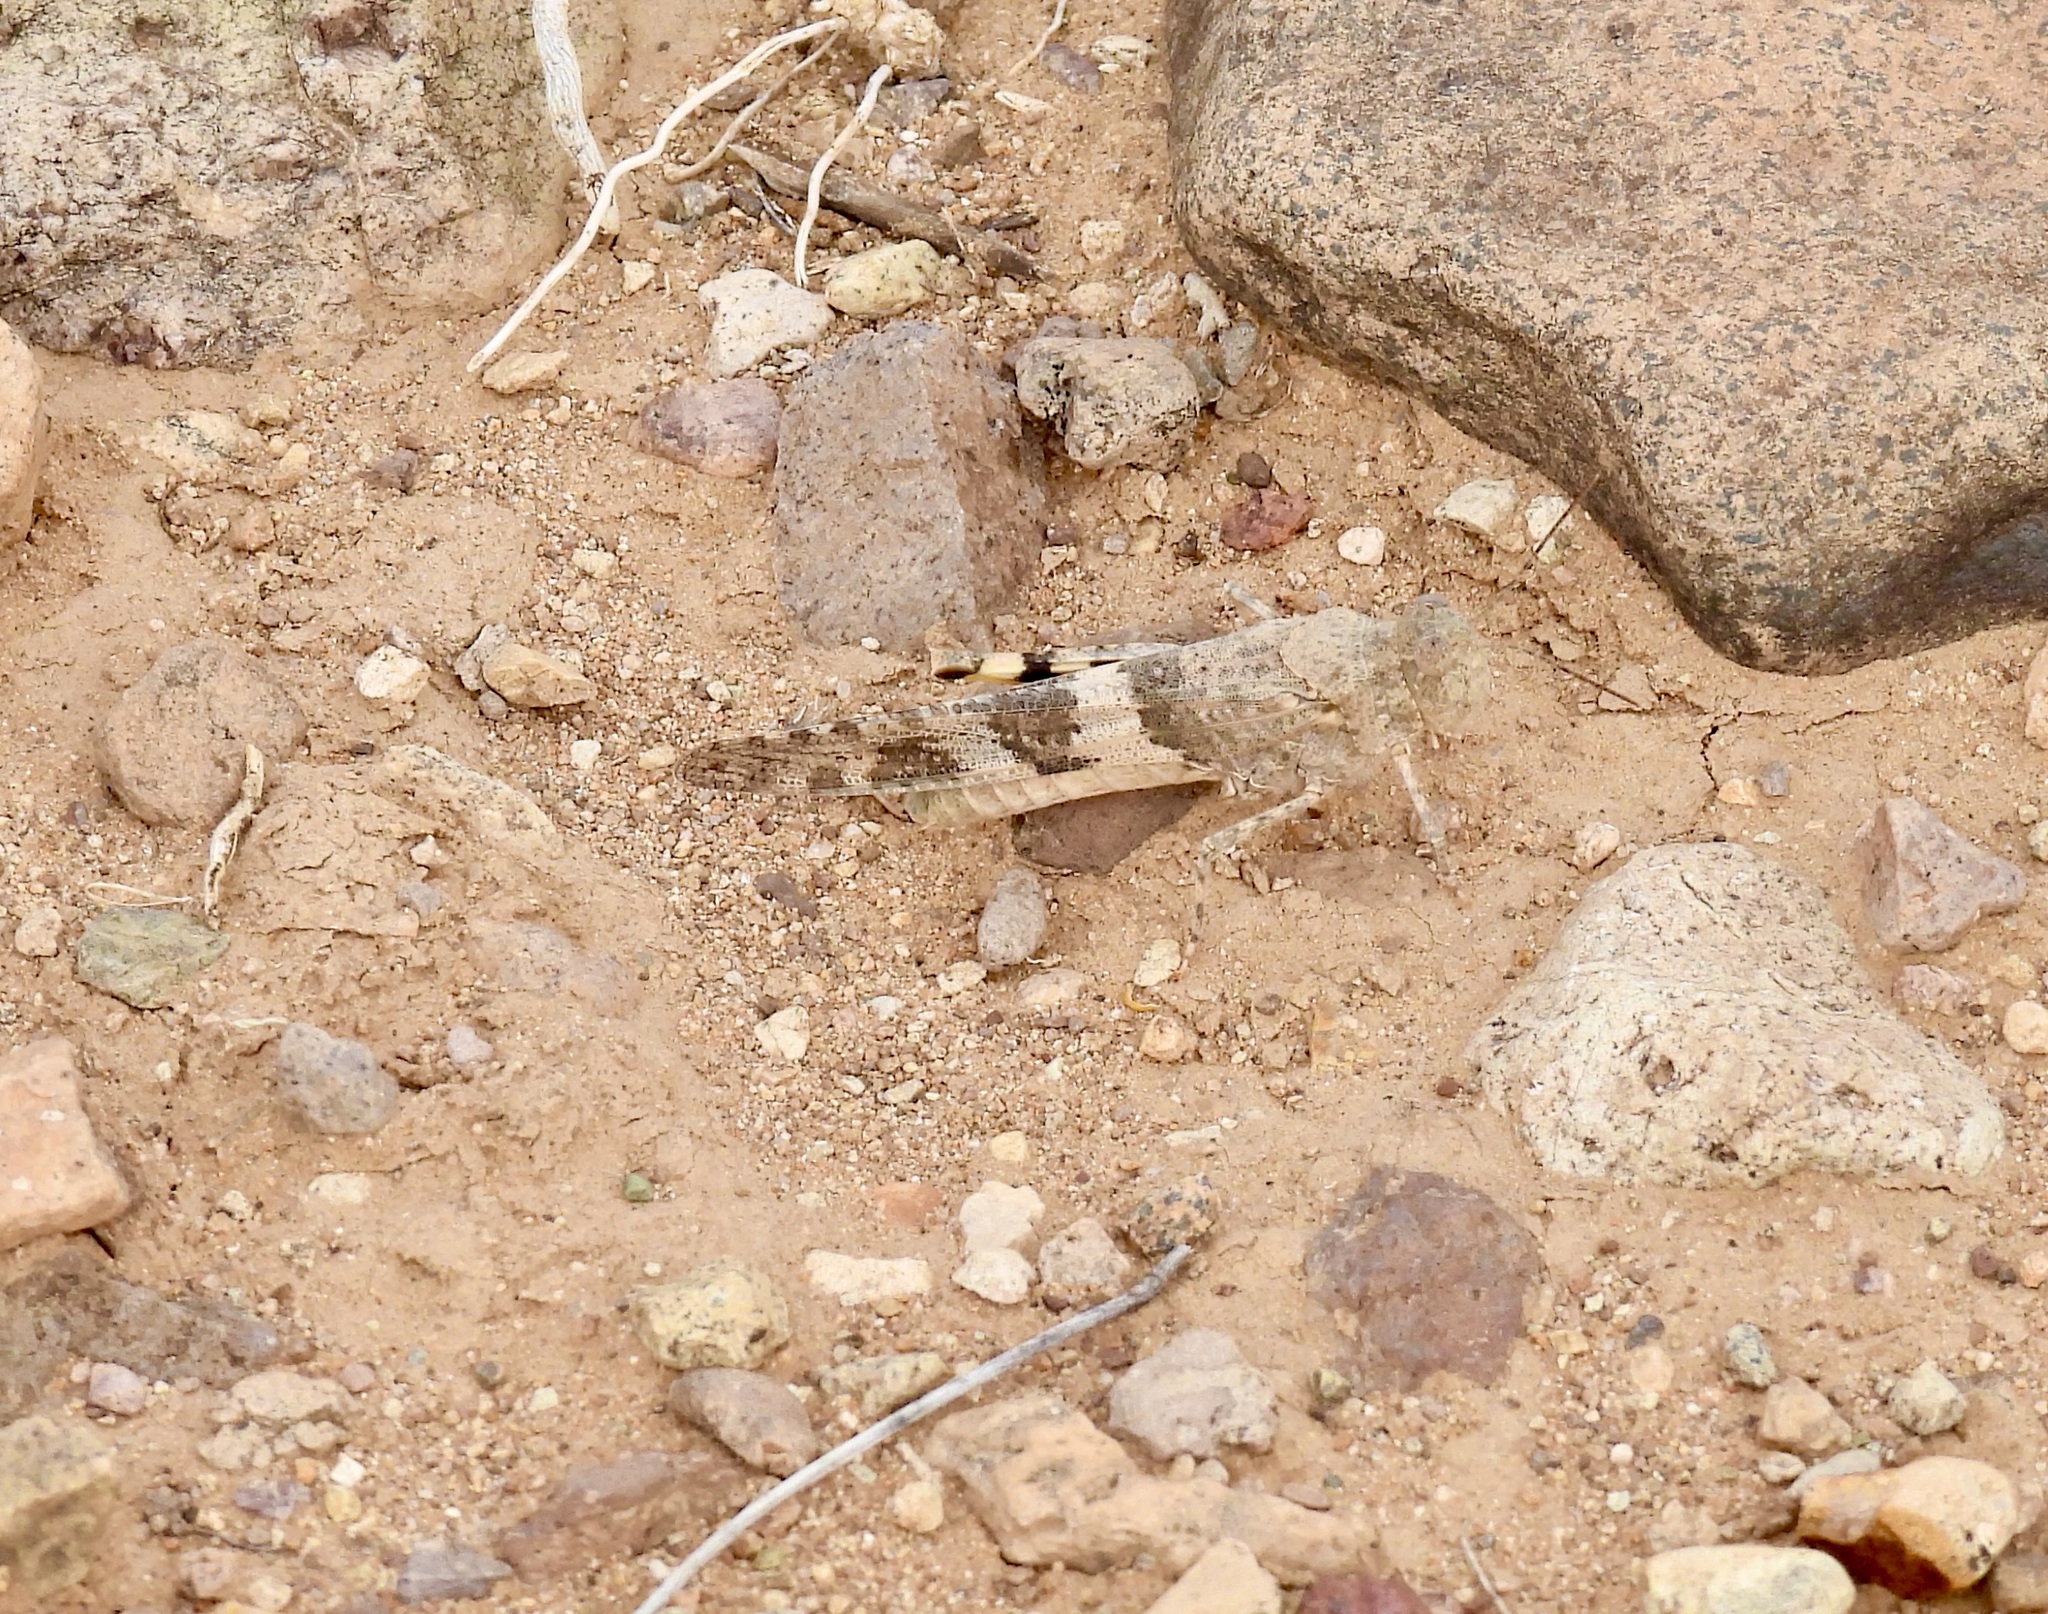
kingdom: Animalia
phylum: Arthropoda
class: Insecta
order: Orthoptera
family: Acrididae
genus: Trimerotropis
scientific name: Trimerotropis pallidipennis
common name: Pallid-winged grasshopper
